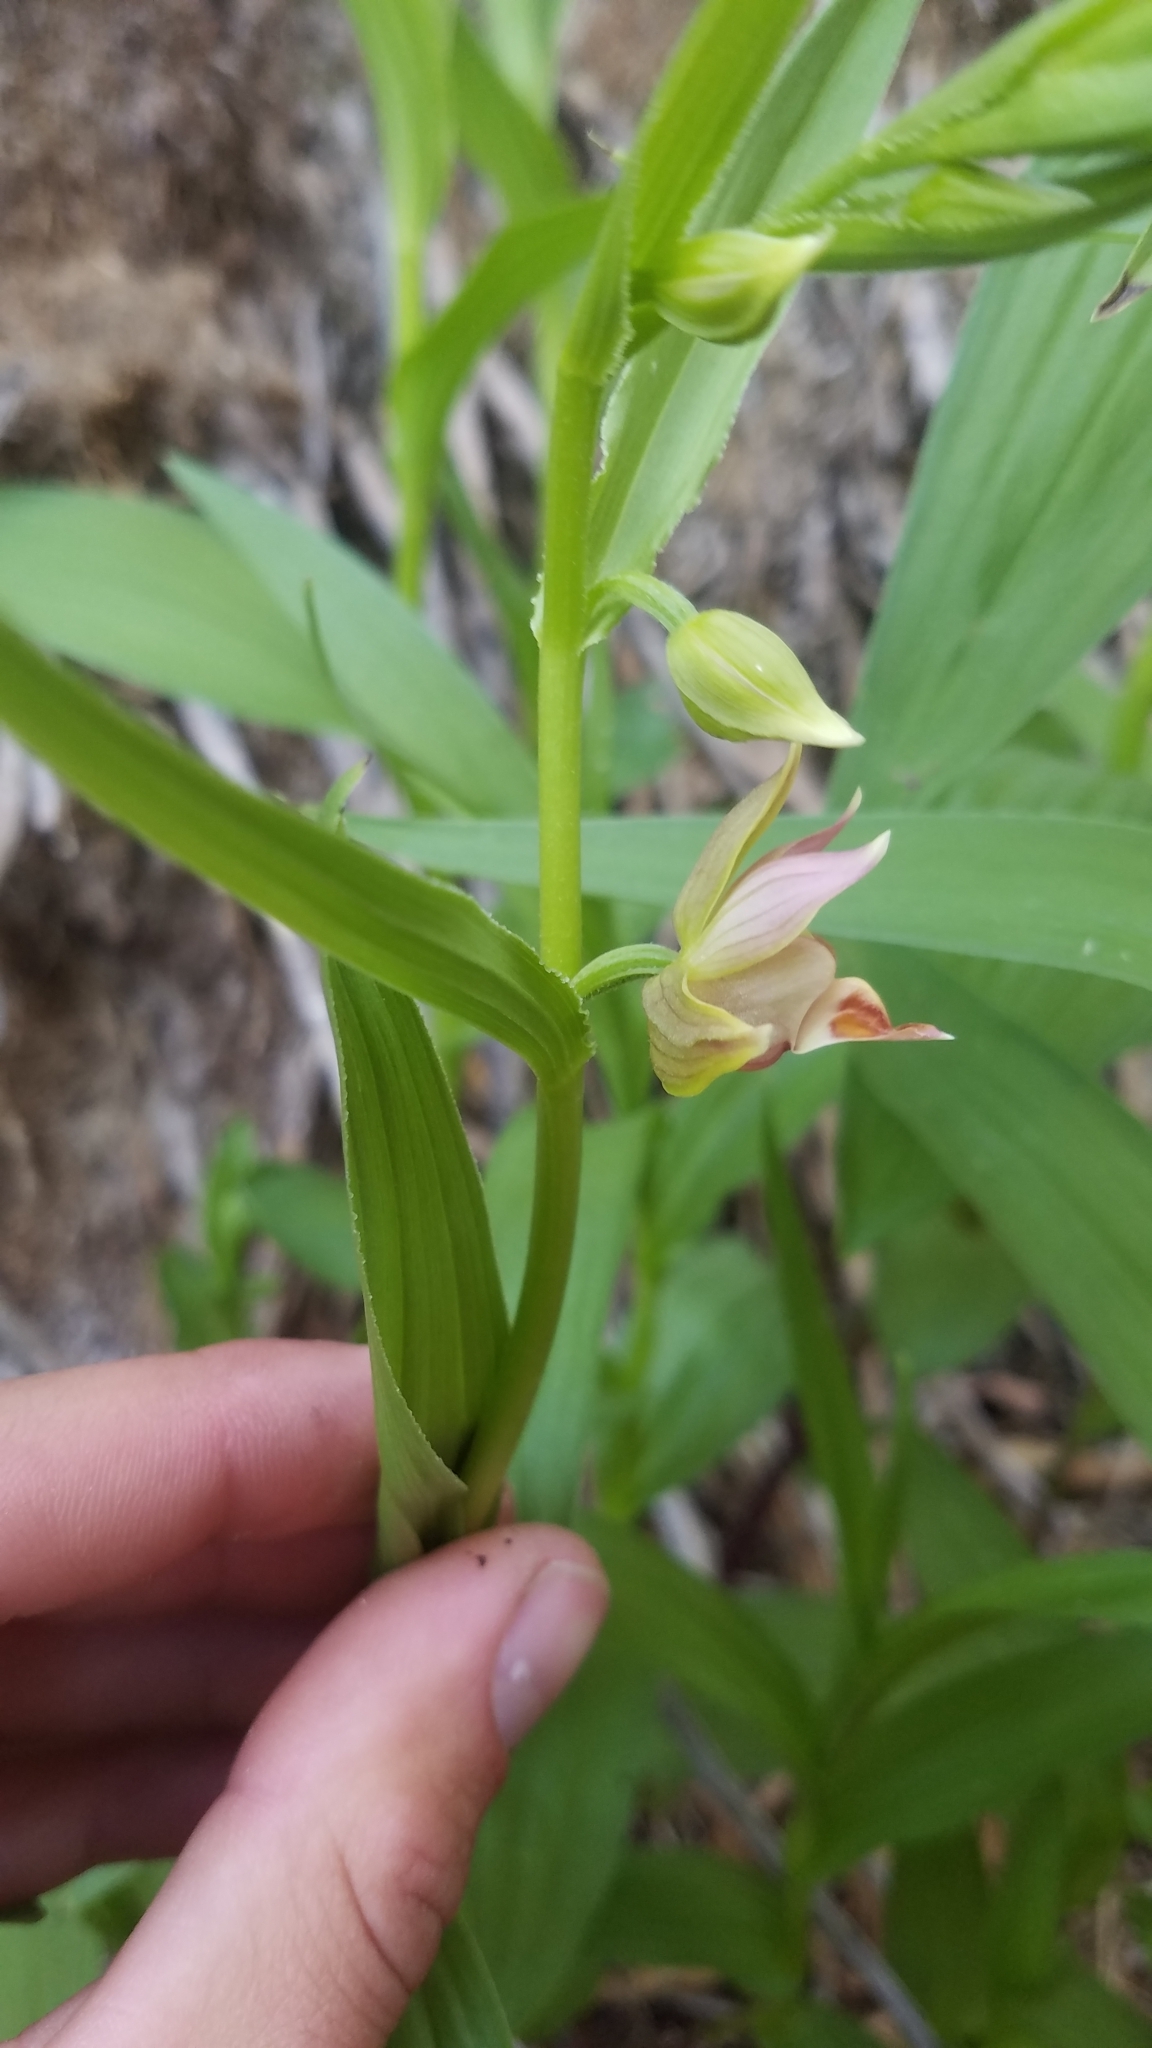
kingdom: Plantae
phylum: Tracheophyta
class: Liliopsida
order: Asparagales
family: Orchidaceae
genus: Epipactis
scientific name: Epipactis gigantea
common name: Chatterbox
